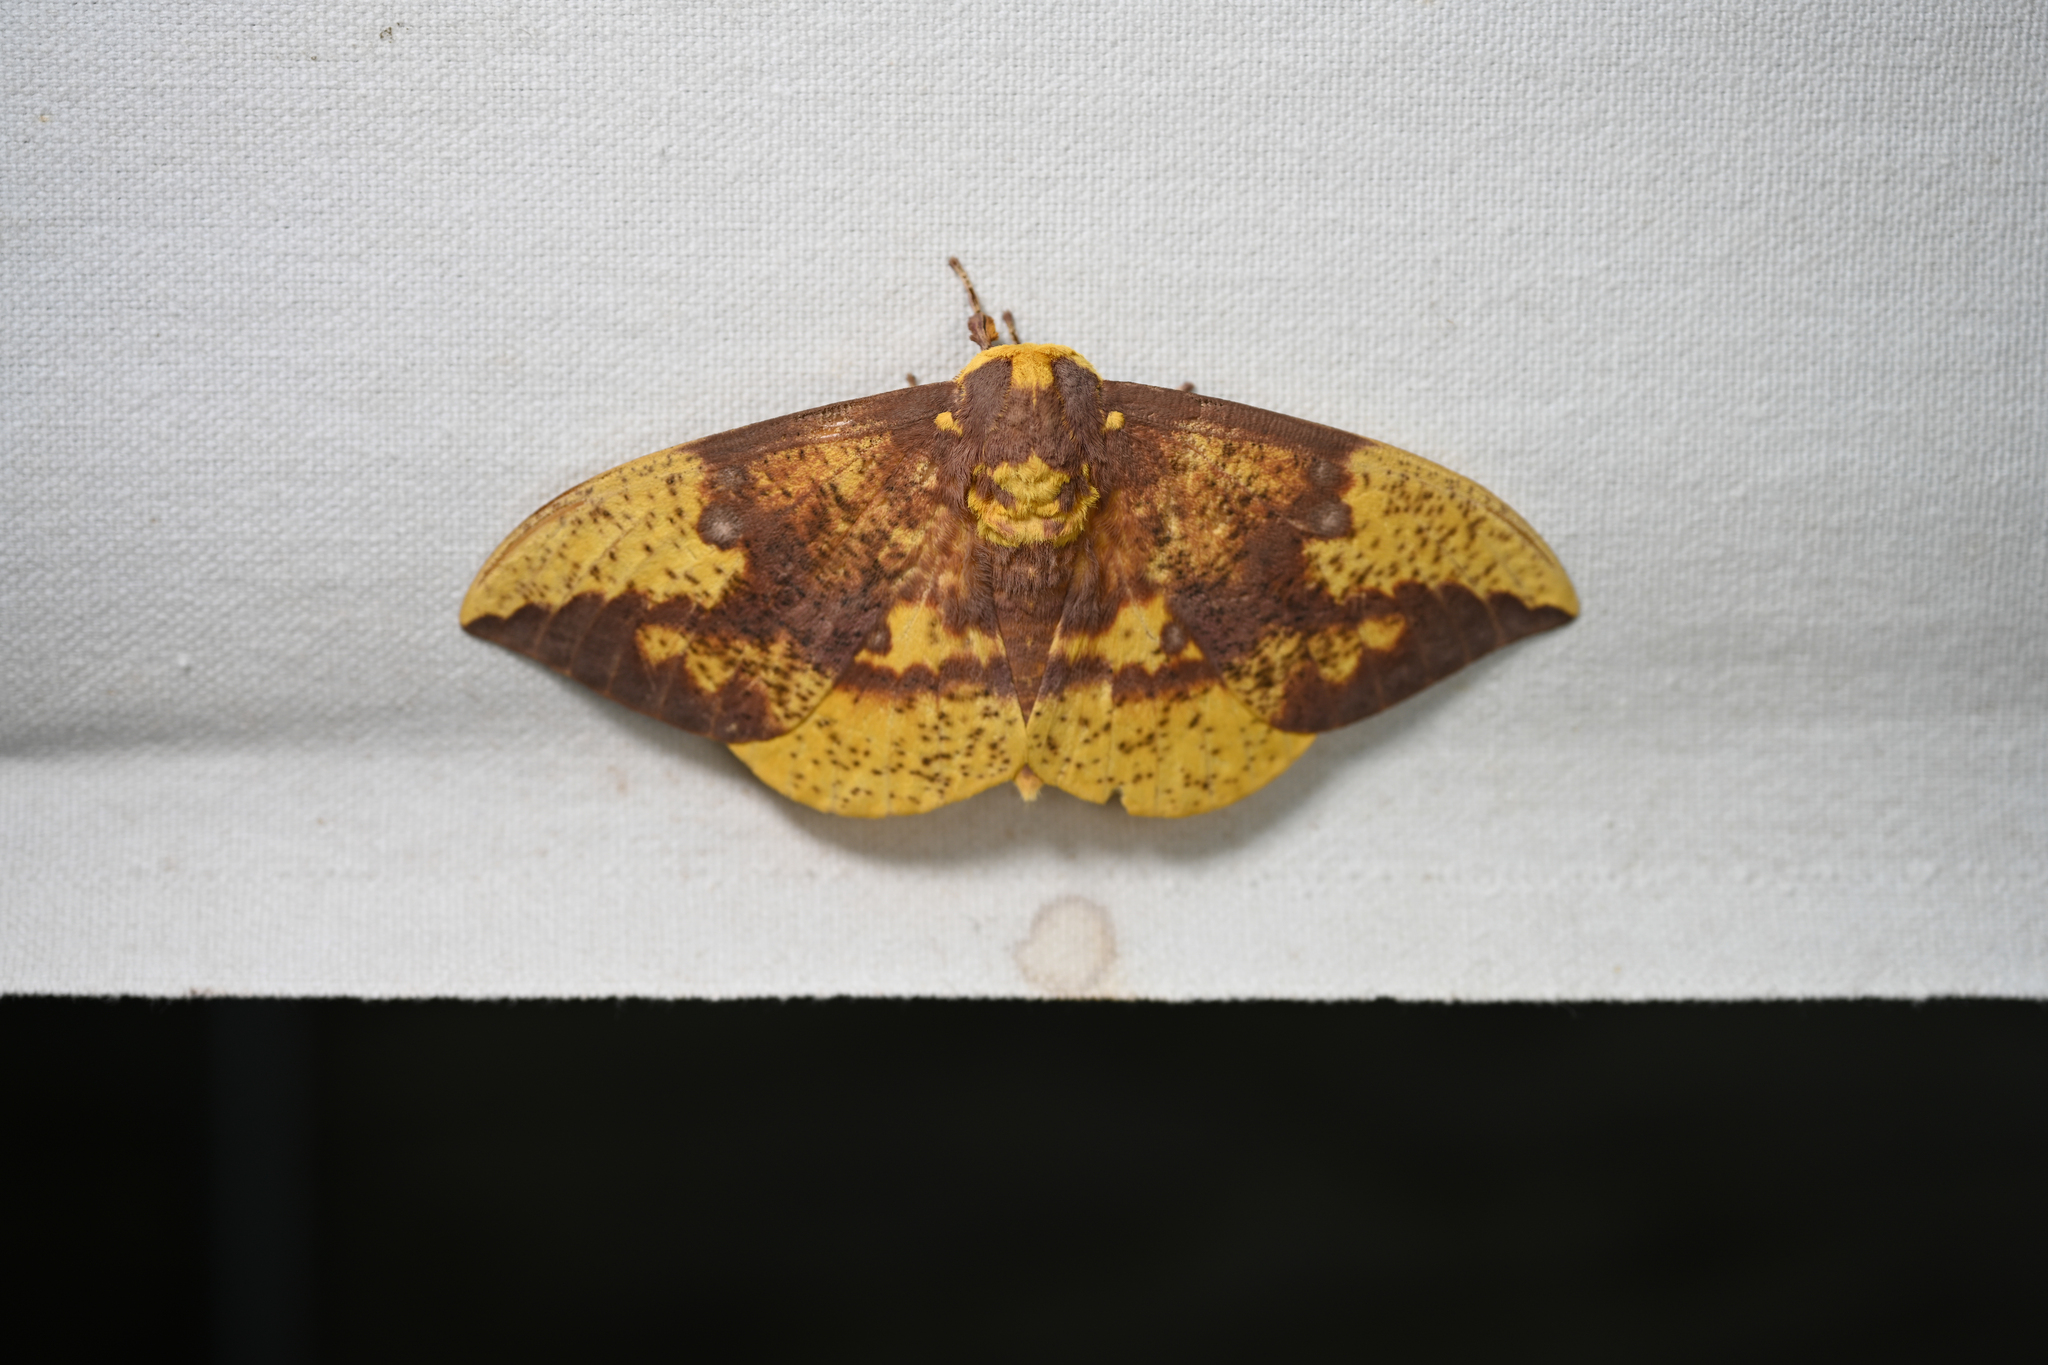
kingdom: Animalia
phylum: Arthropoda
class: Insecta
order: Lepidoptera
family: Saturniidae
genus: Eacles
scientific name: Eacles imperialis
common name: Imperial moth
